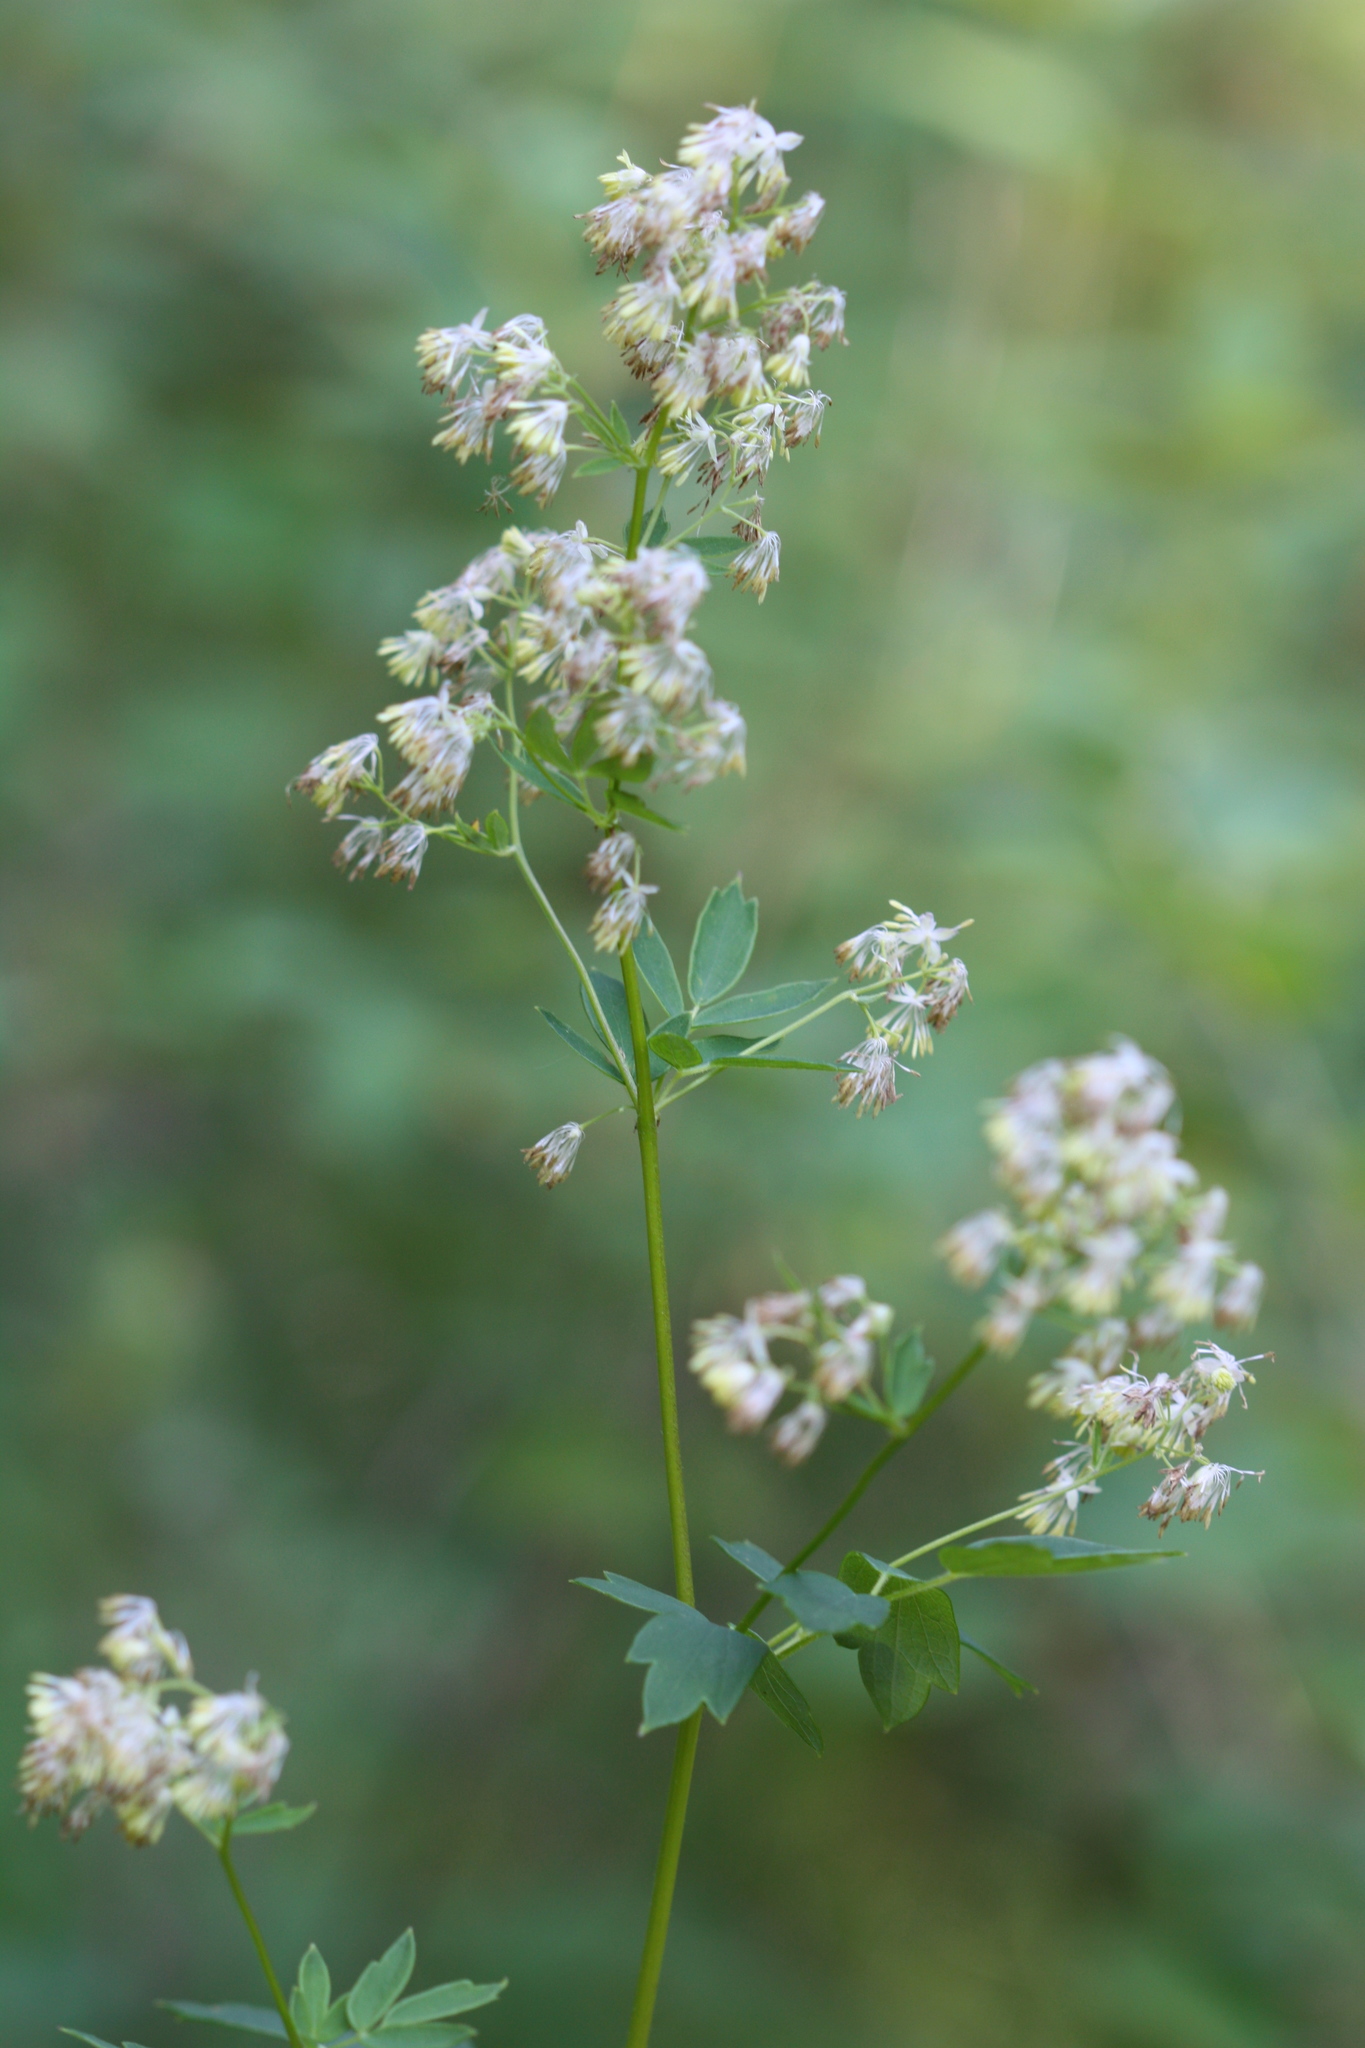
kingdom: Plantae
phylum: Tracheophyta
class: Magnoliopsida
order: Ranunculales
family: Ranunculaceae
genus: Thalictrum
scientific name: Thalictrum dasycarpum
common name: Purple meadow-rue
